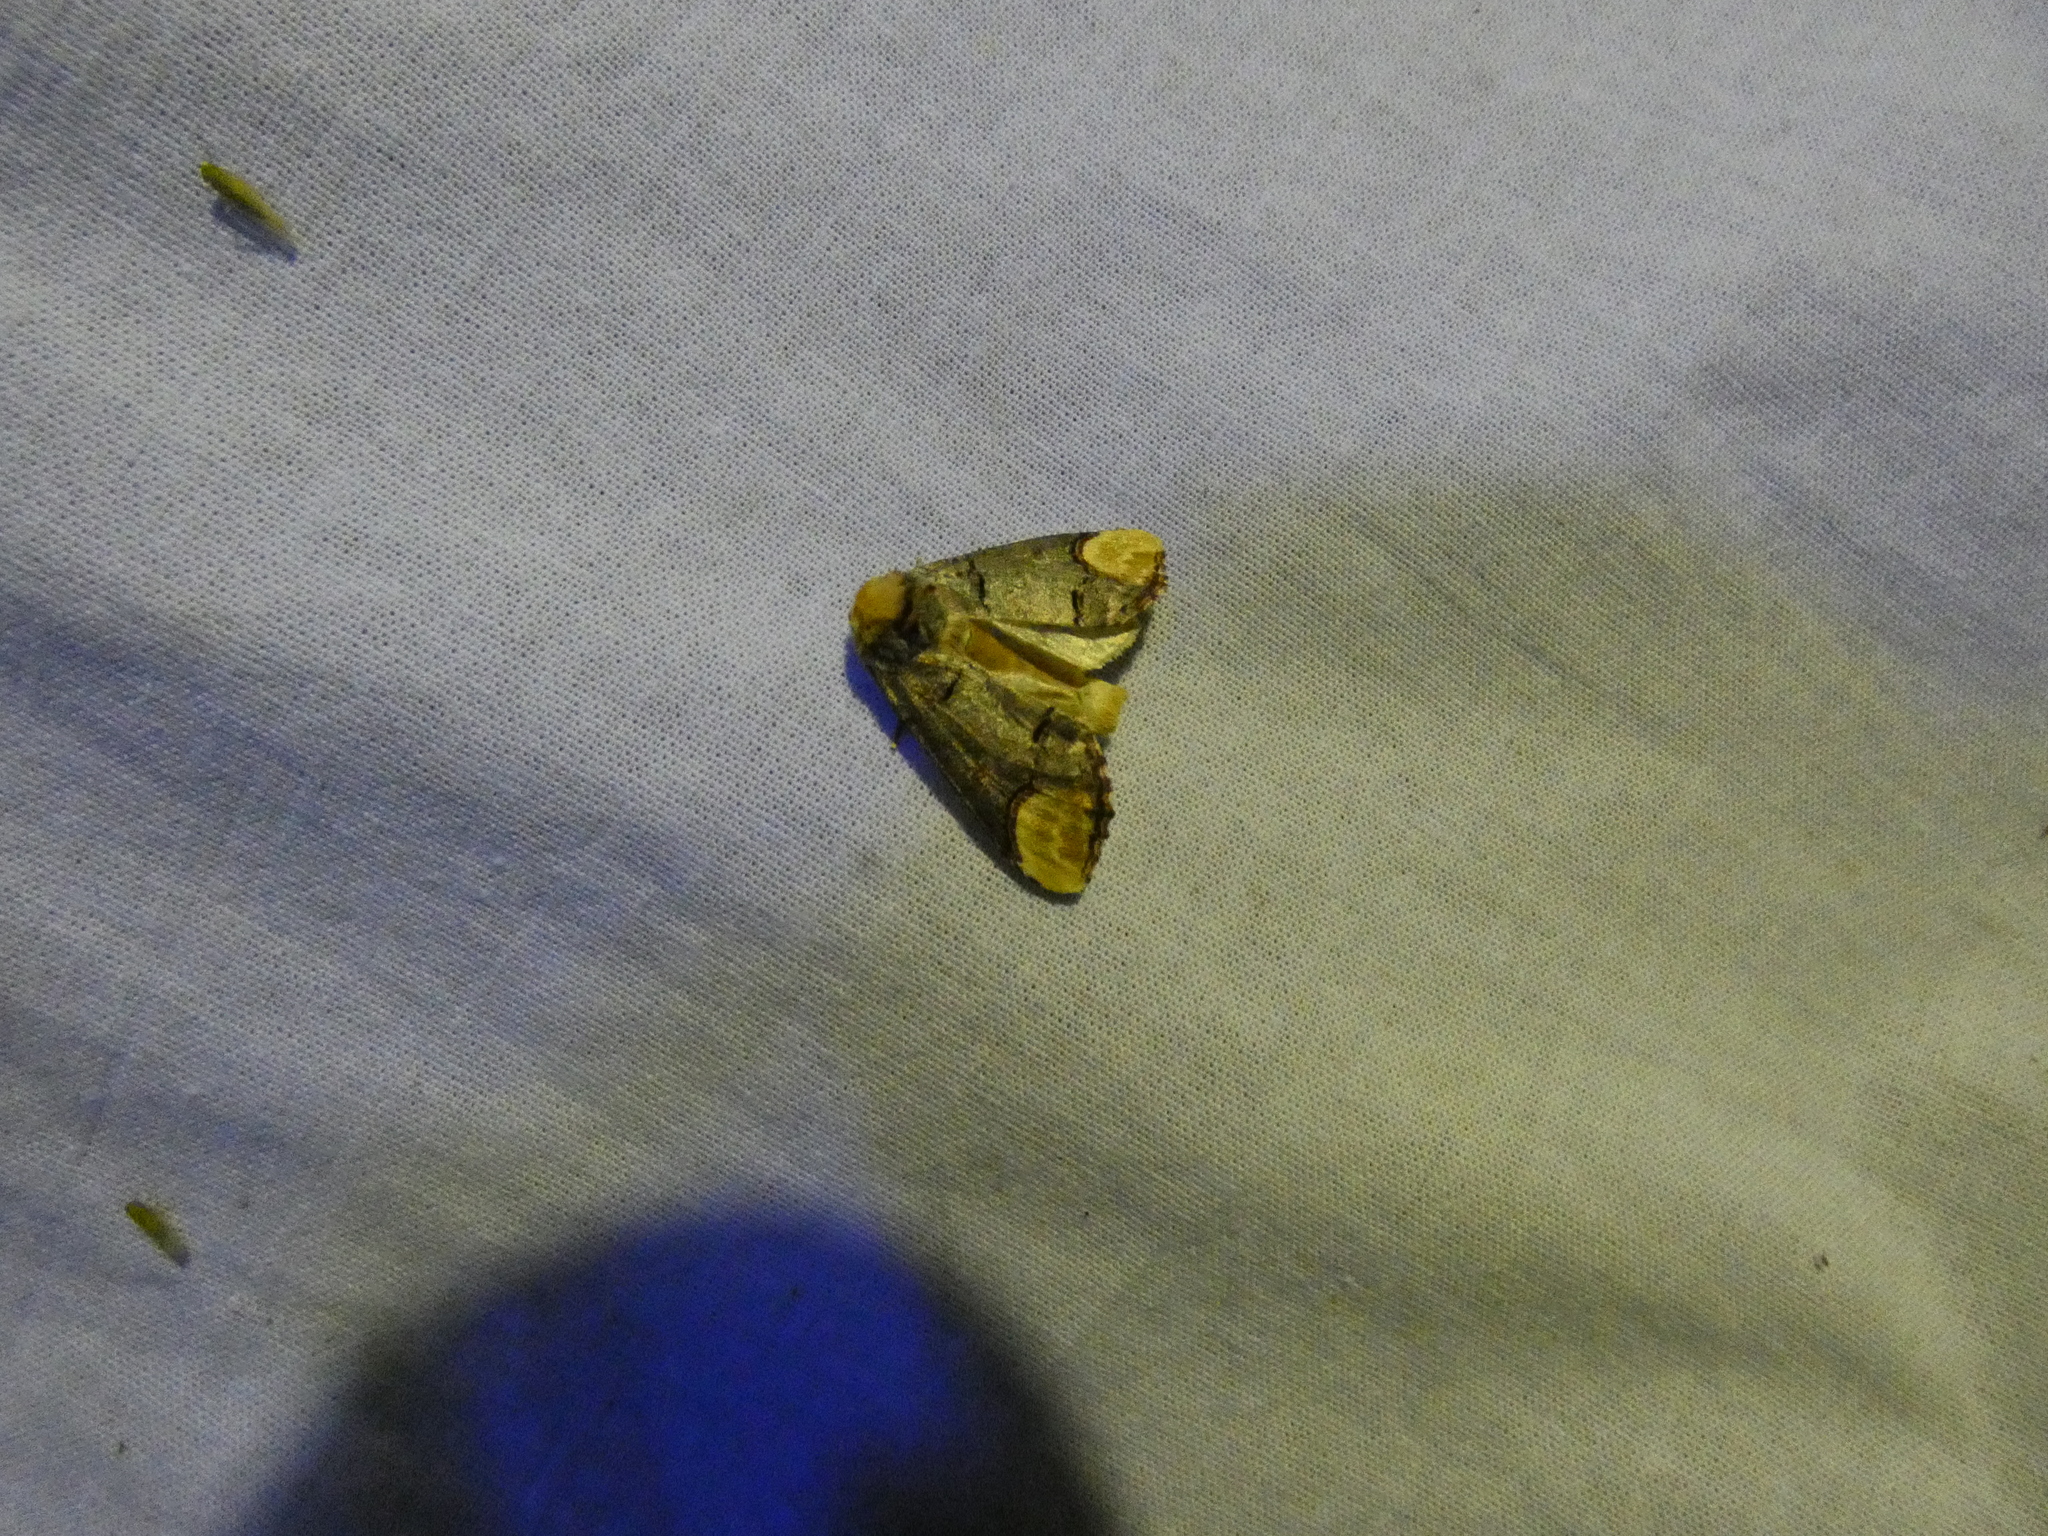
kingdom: Animalia
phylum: Arthropoda
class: Insecta
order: Lepidoptera
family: Notodontidae
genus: Phalera
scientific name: Phalera bucephala
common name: Buff-tip
